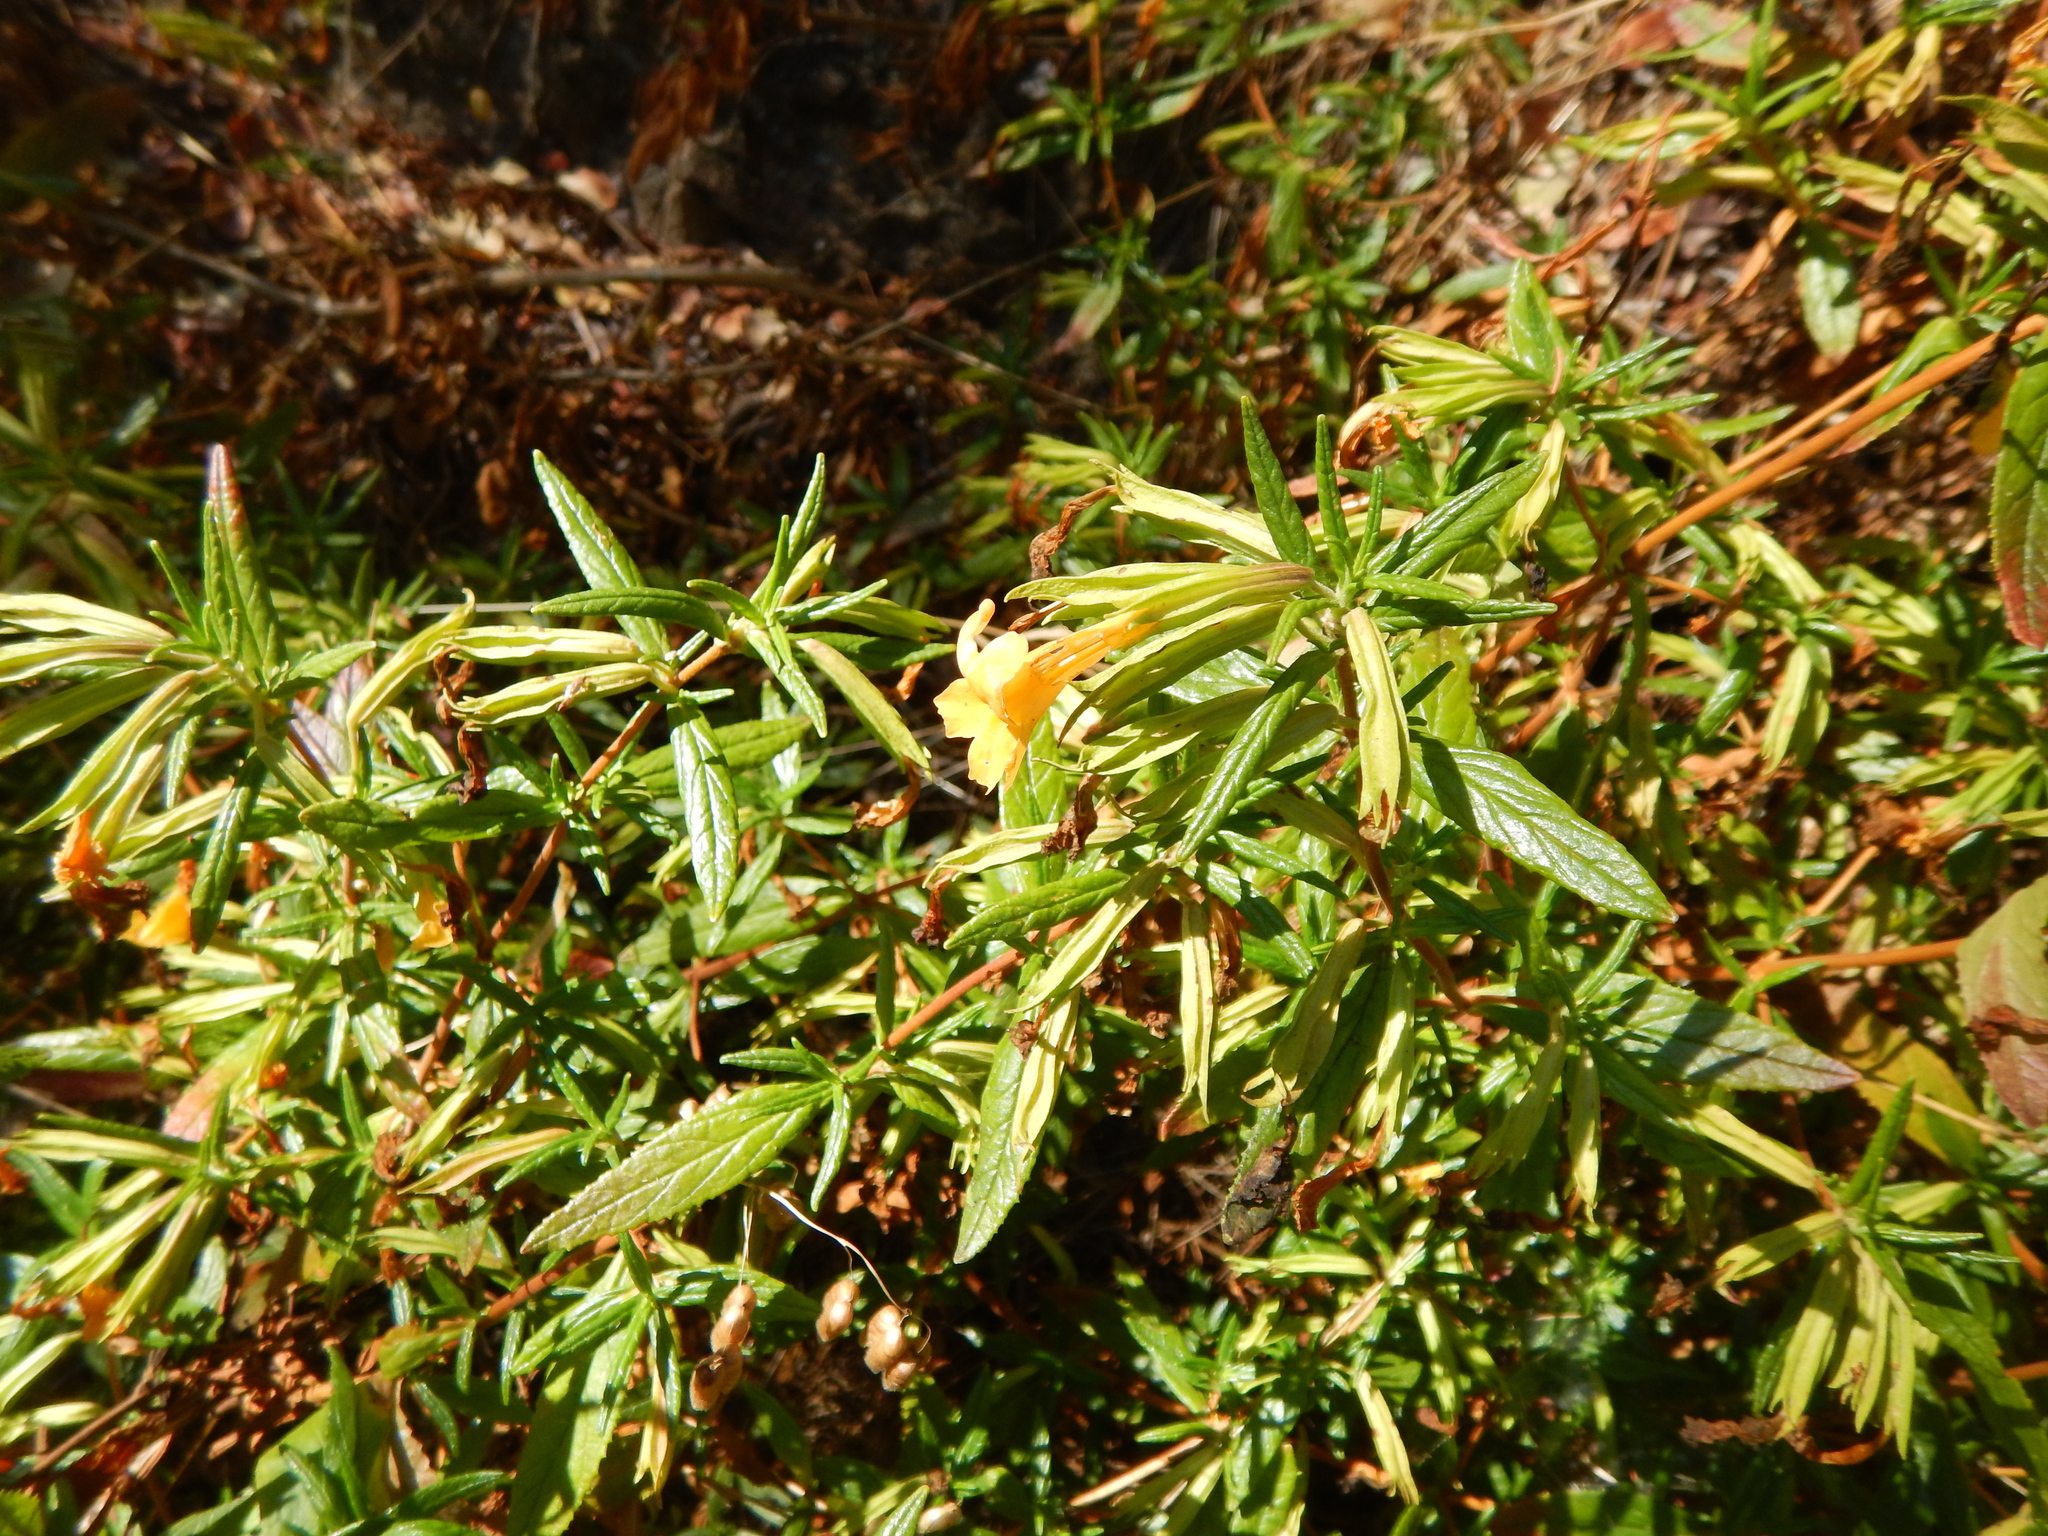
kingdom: Plantae
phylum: Tracheophyta
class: Magnoliopsida
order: Lamiales
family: Phrymaceae
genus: Diplacus
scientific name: Diplacus aurantiacus
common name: Bush monkey-flower
